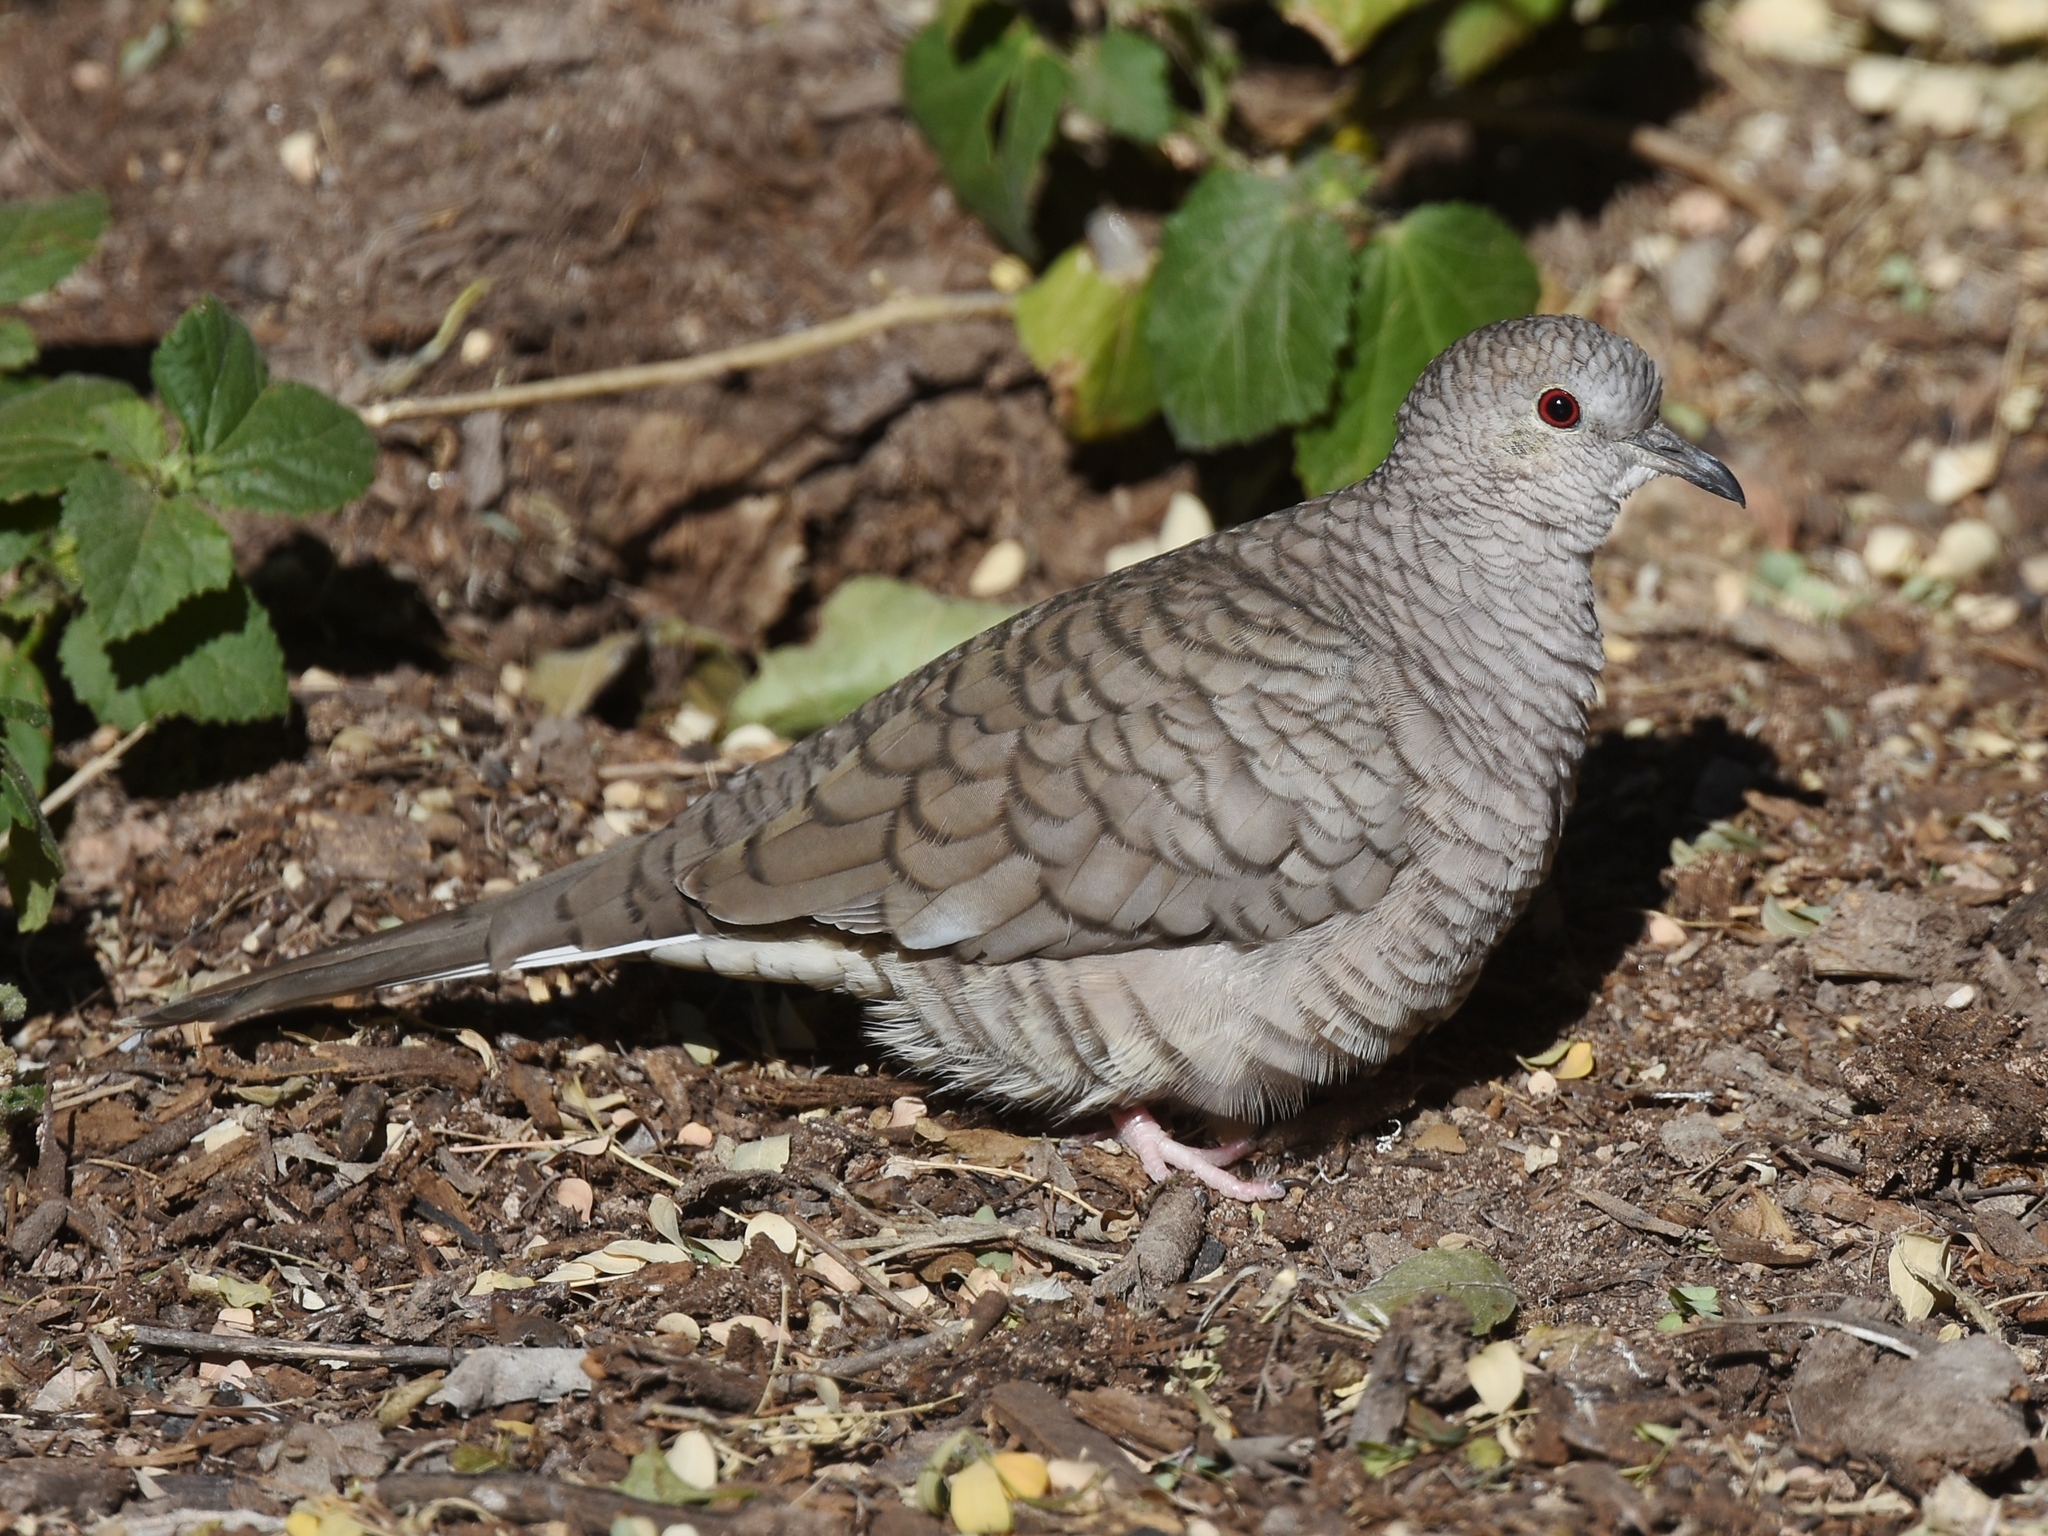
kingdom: Animalia
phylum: Chordata
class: Aves
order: Columbiformes
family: Columbidae
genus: Columbina
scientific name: Columbina inca
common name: Inca dove
